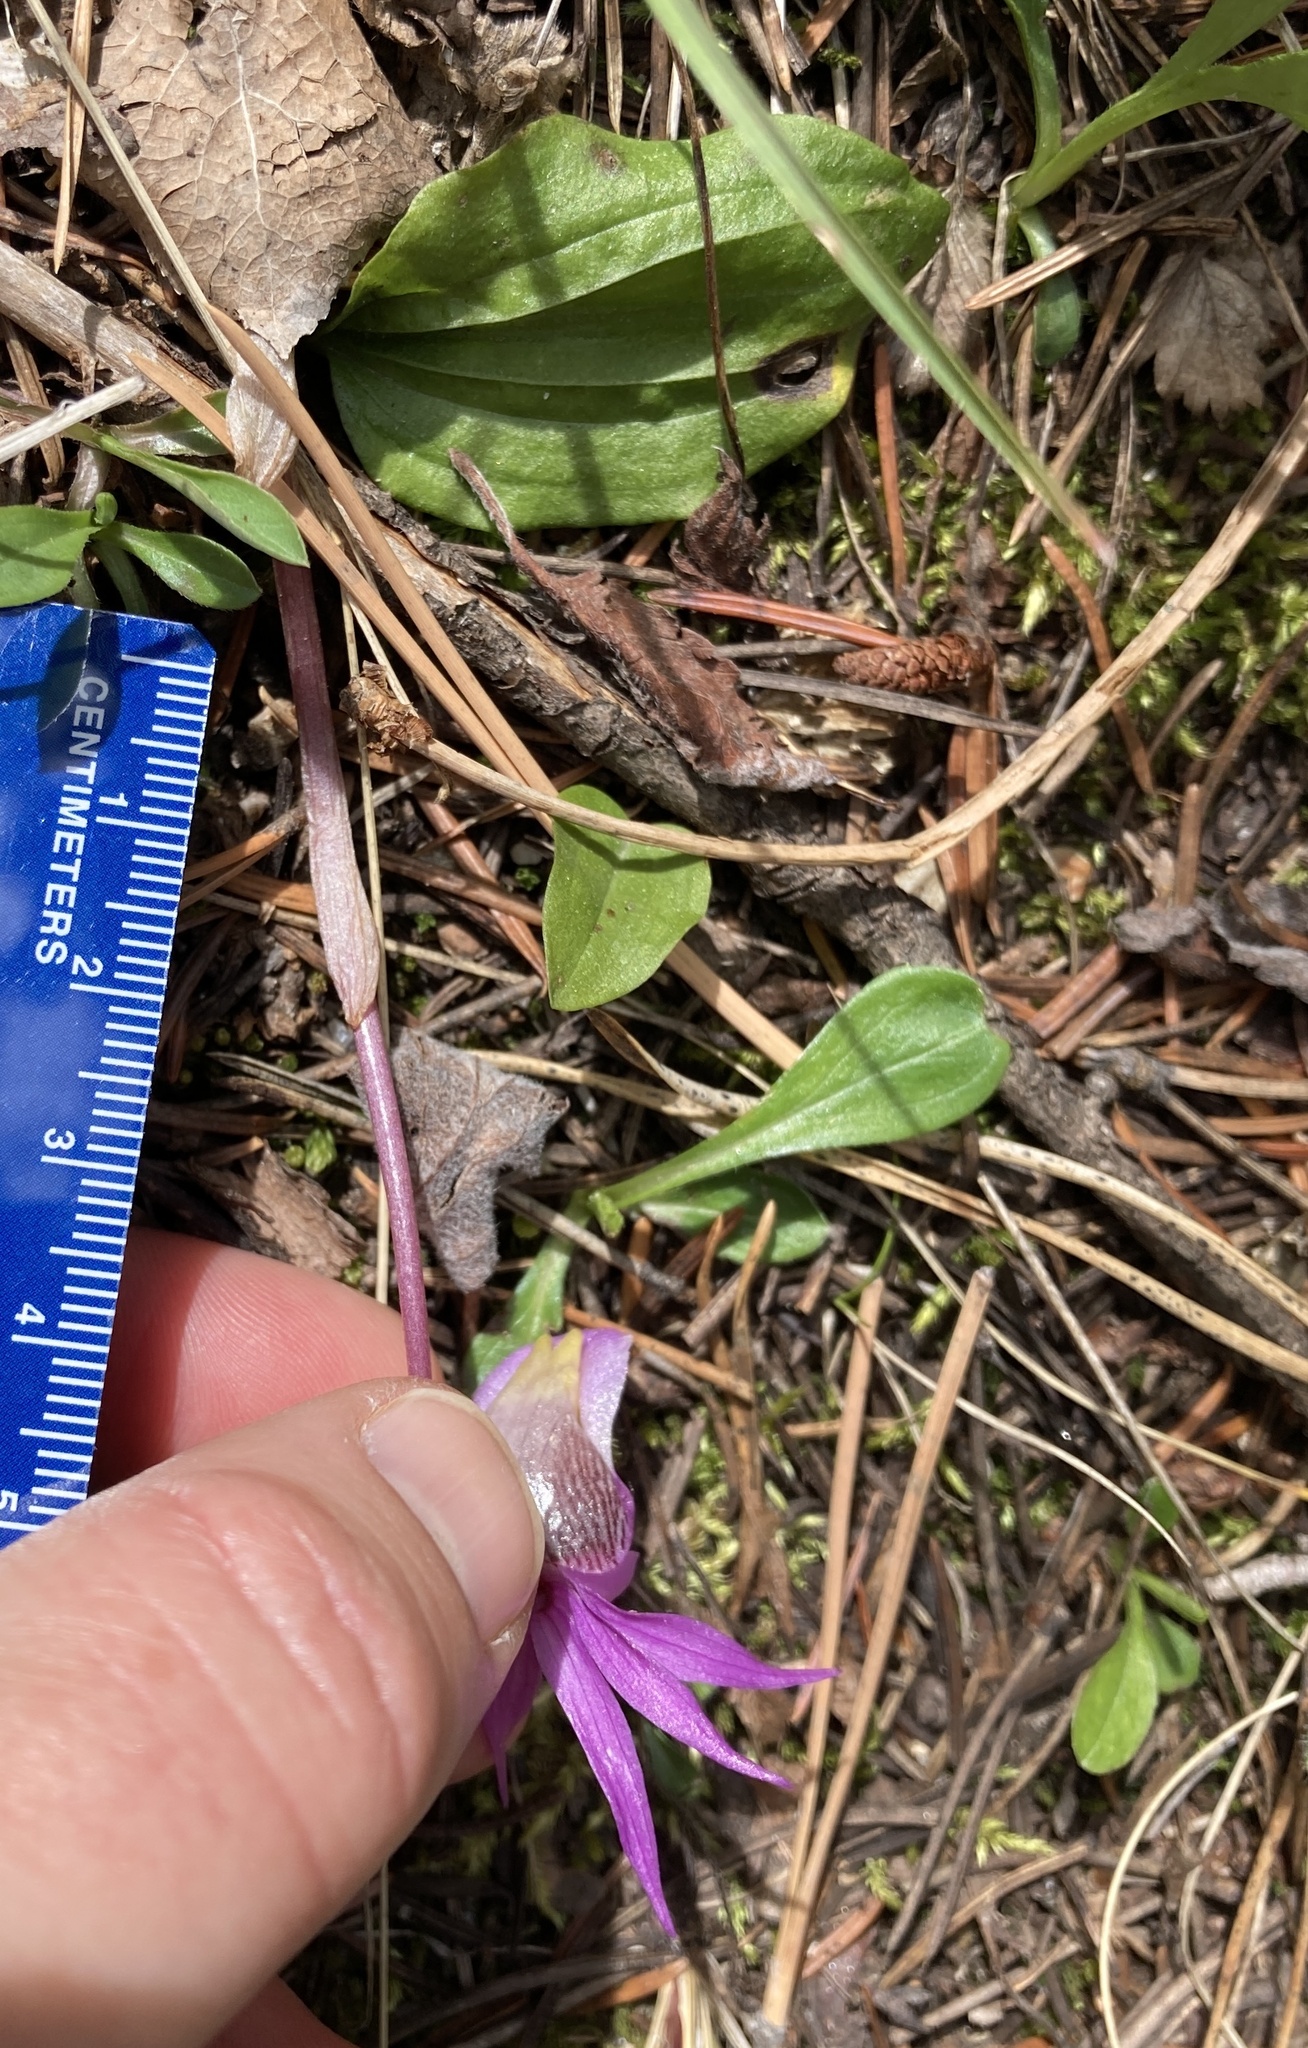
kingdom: Plantae
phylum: Tracheophyta
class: Liliopsida
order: Asparagales
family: Orchidaceae
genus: Calypso
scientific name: Calypso bulbosa
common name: Calypso
